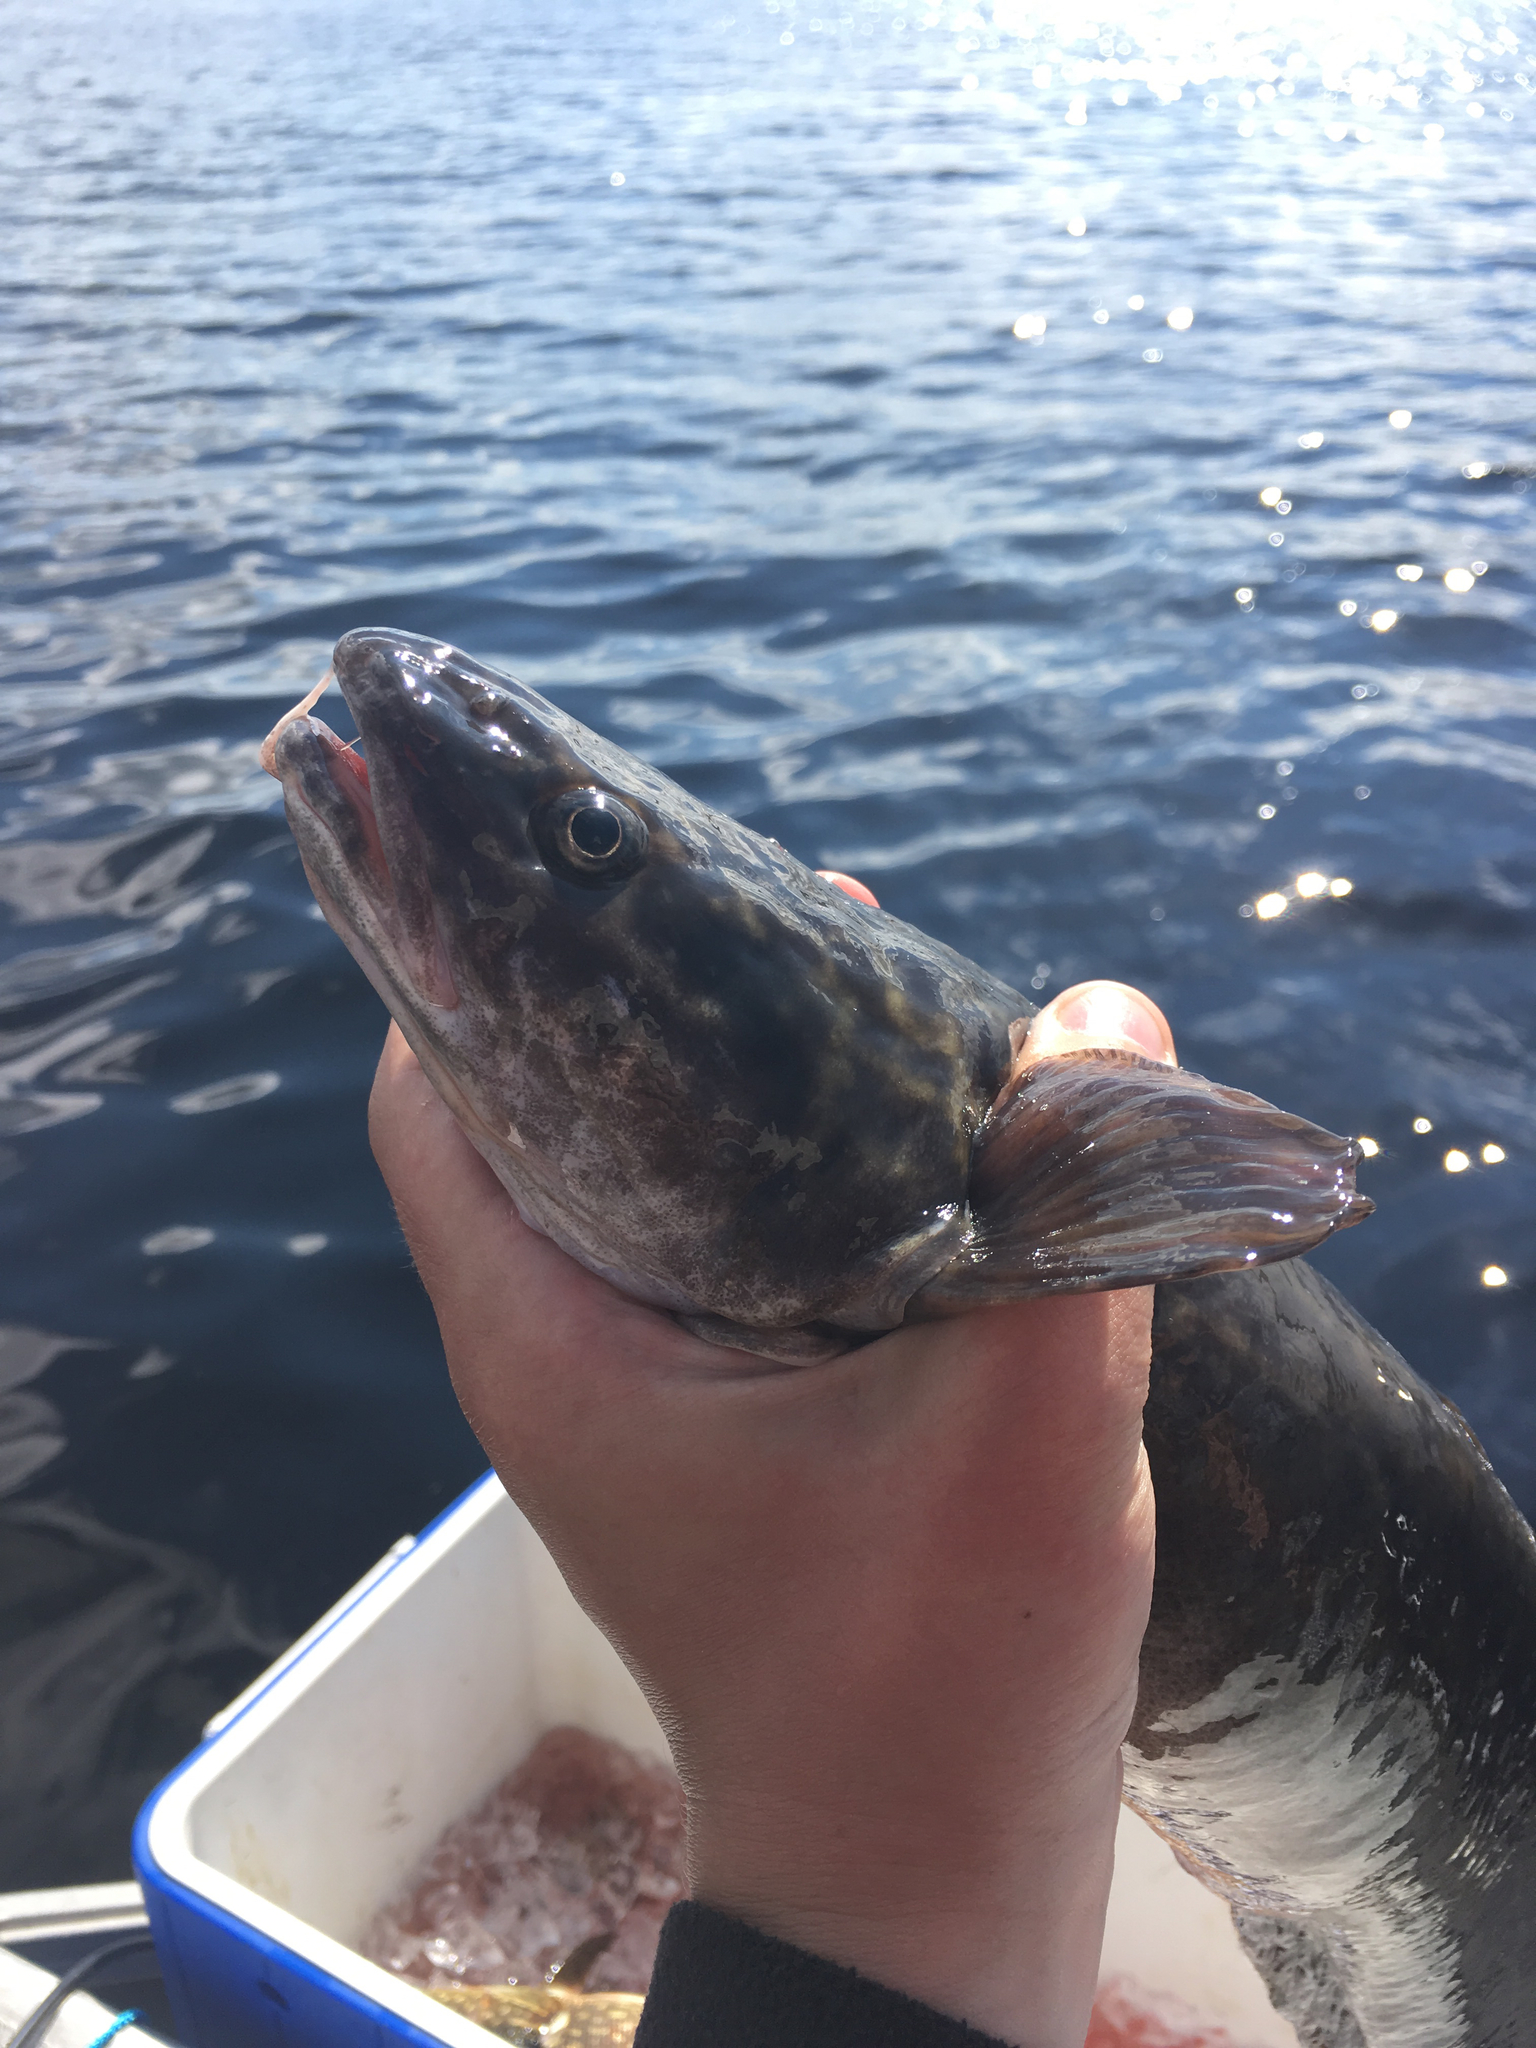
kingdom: Animalia
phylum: Chordata
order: Gadiformes
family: Lotidae
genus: Lota
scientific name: Lota lota
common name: Burbot
